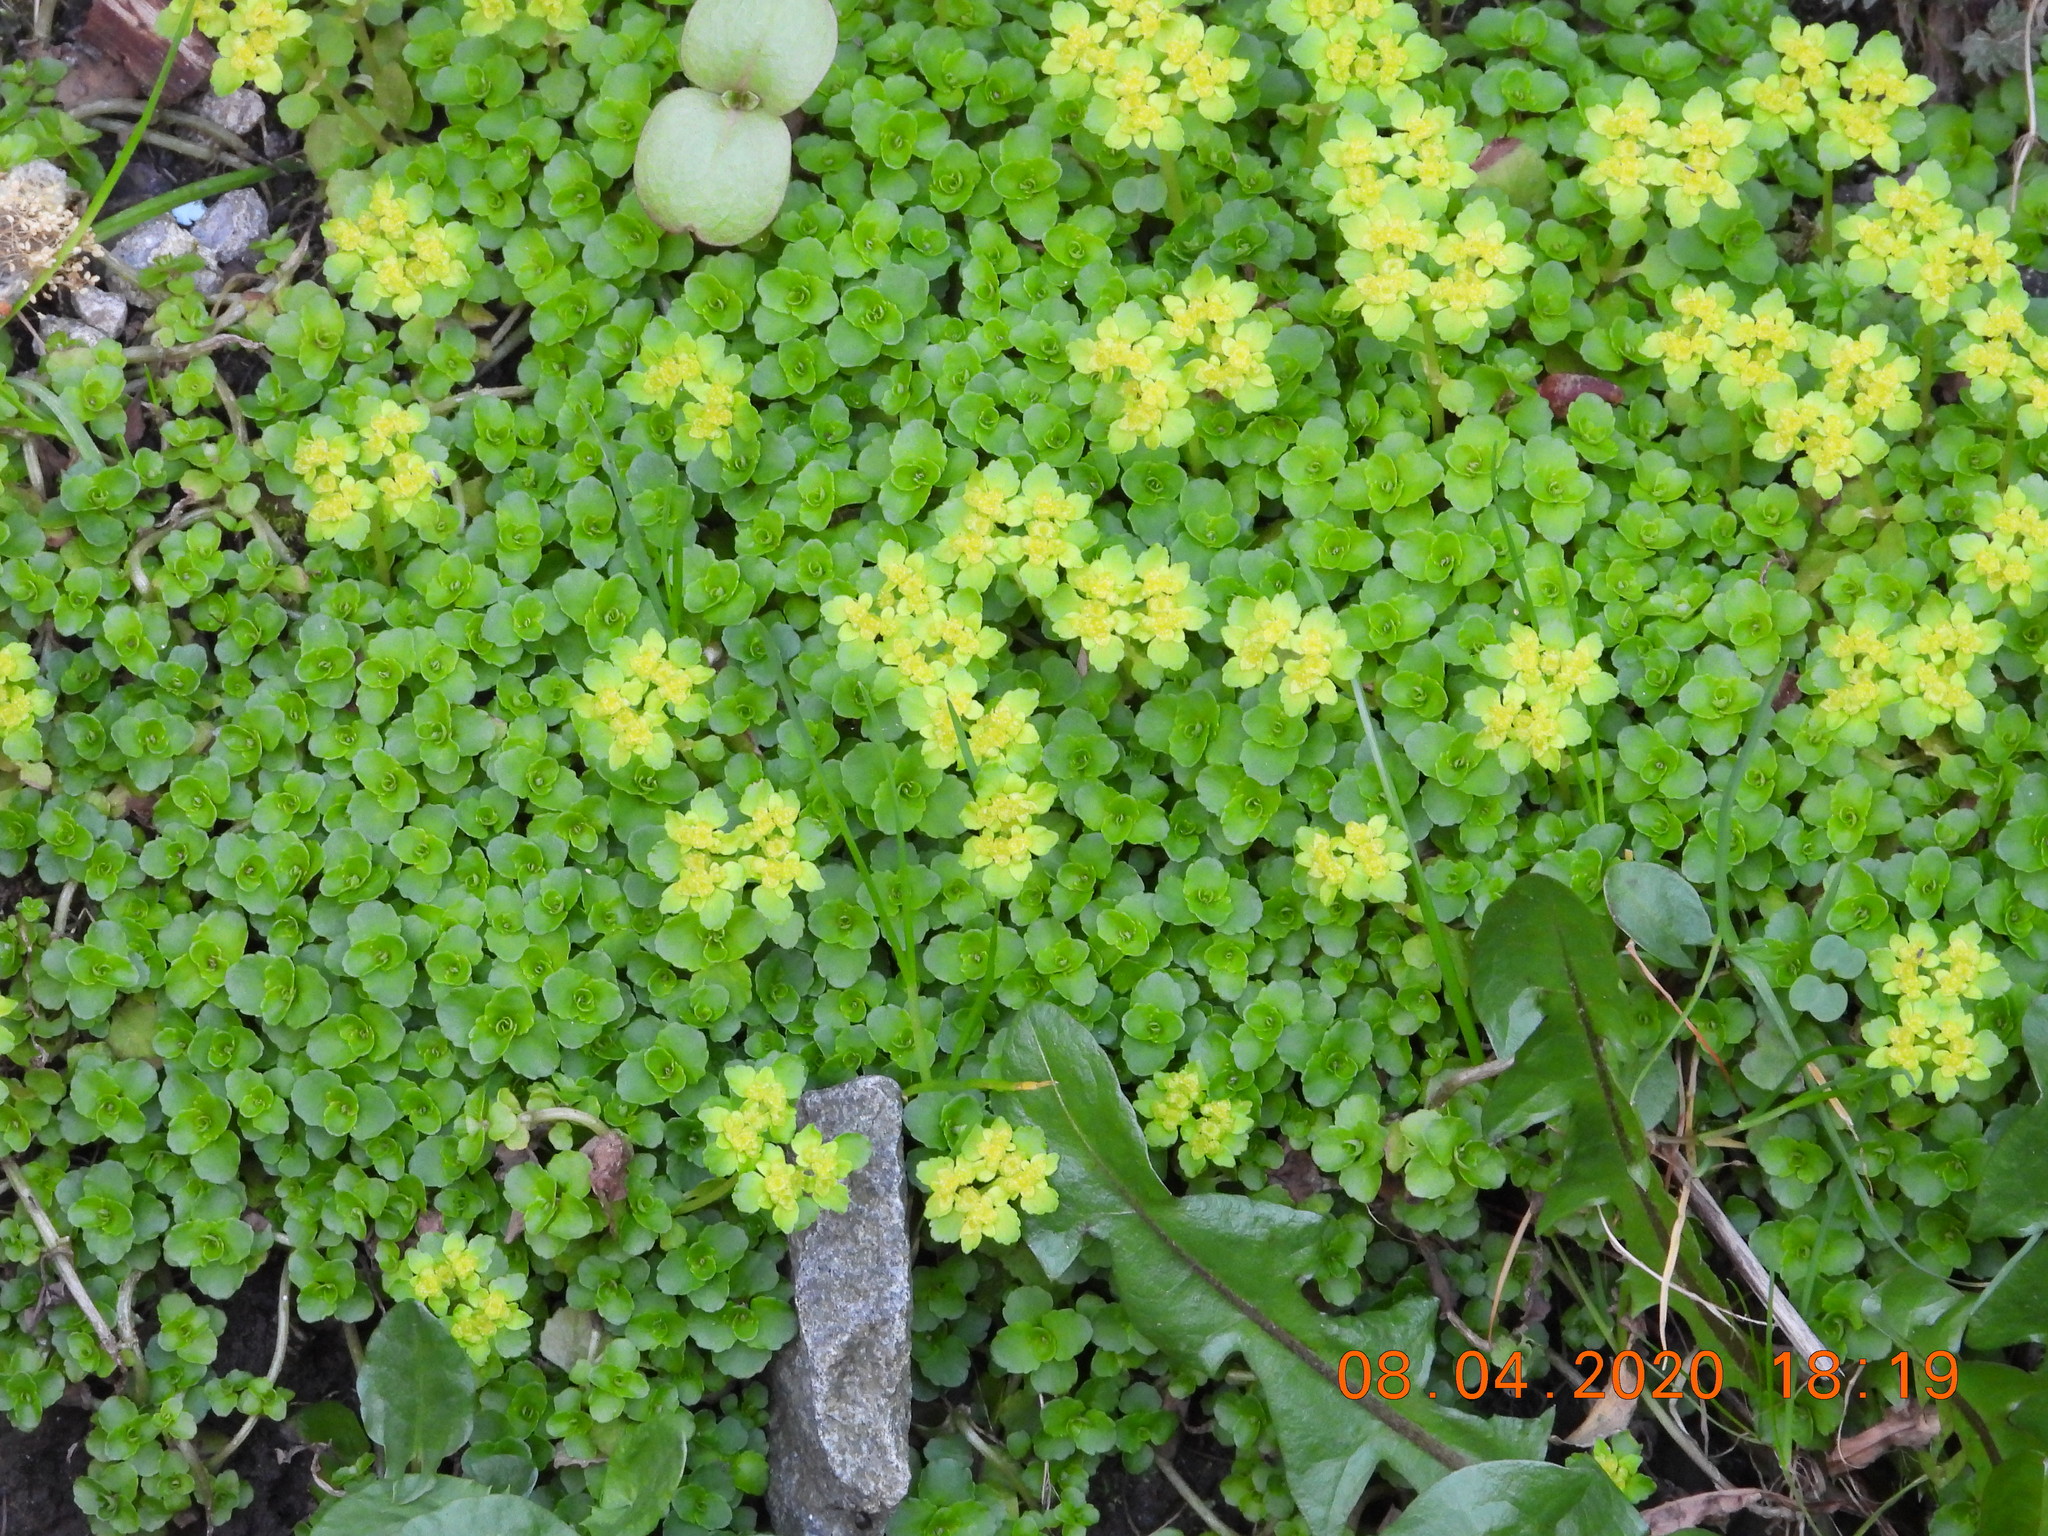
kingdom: Plantae
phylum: Tracheophyta
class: Magnoliopsida
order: Saxifragales
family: Saxifragaceae
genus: Chrysosplenium
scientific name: Chrysosplenium oppositifolium
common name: Opposite-leaved golden-saxifrage
